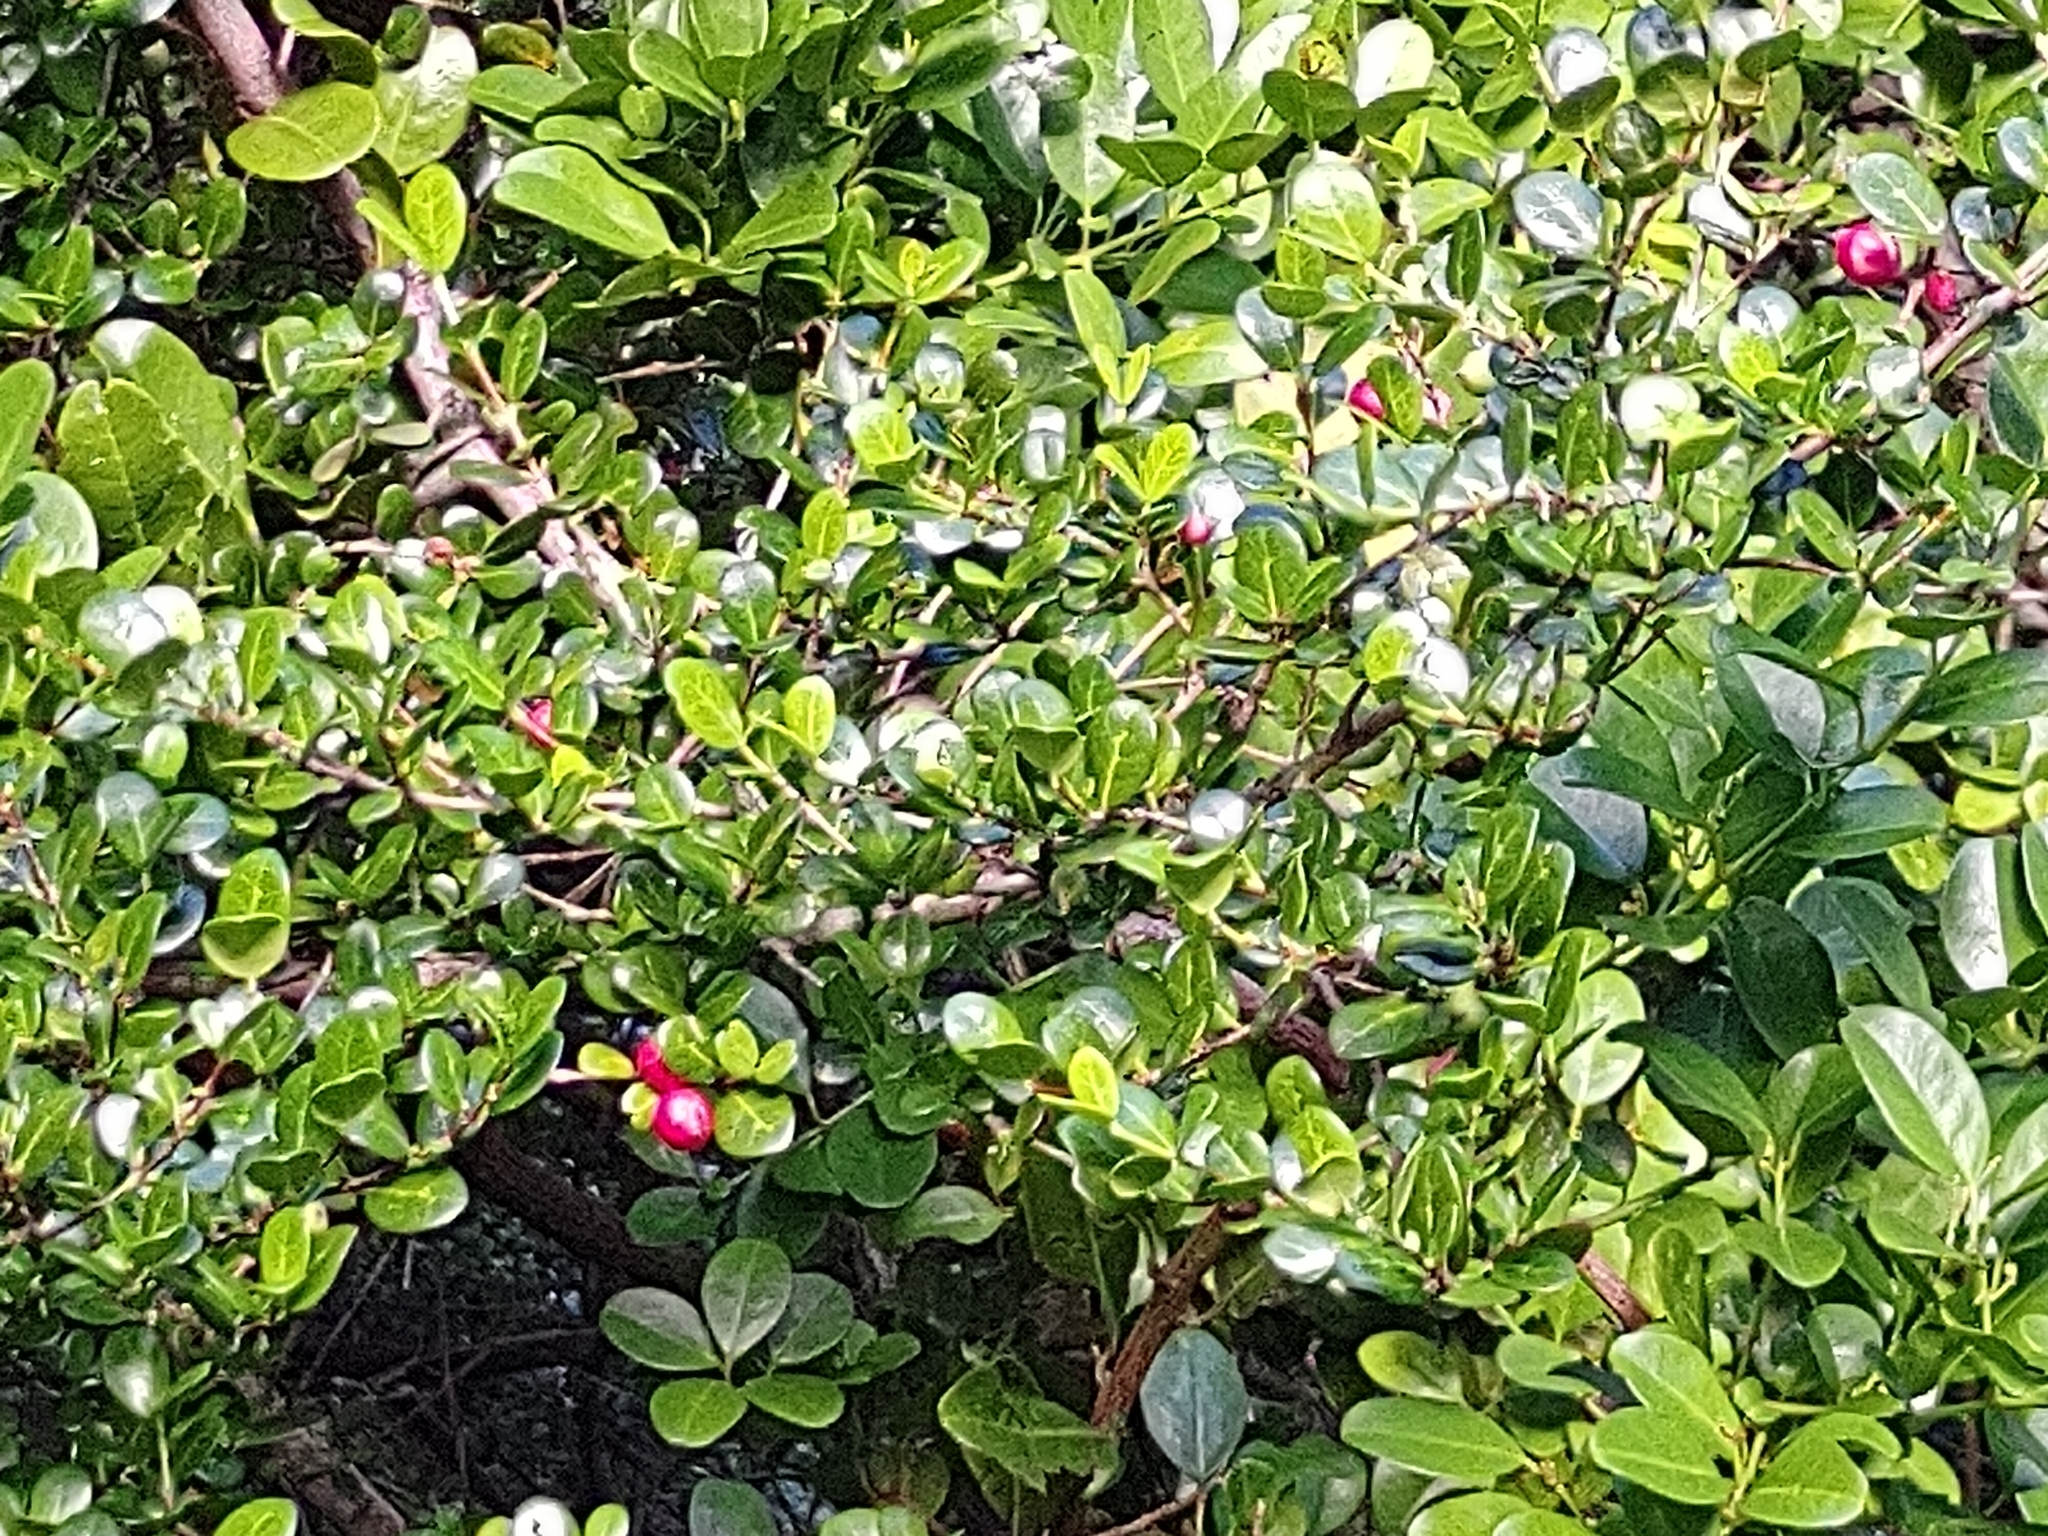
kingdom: Plantae
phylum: Tracheophyta
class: Magnoliopsida
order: Gentianales
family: Rubiaceae
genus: Fernelia
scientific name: Fernelia buxifolia
